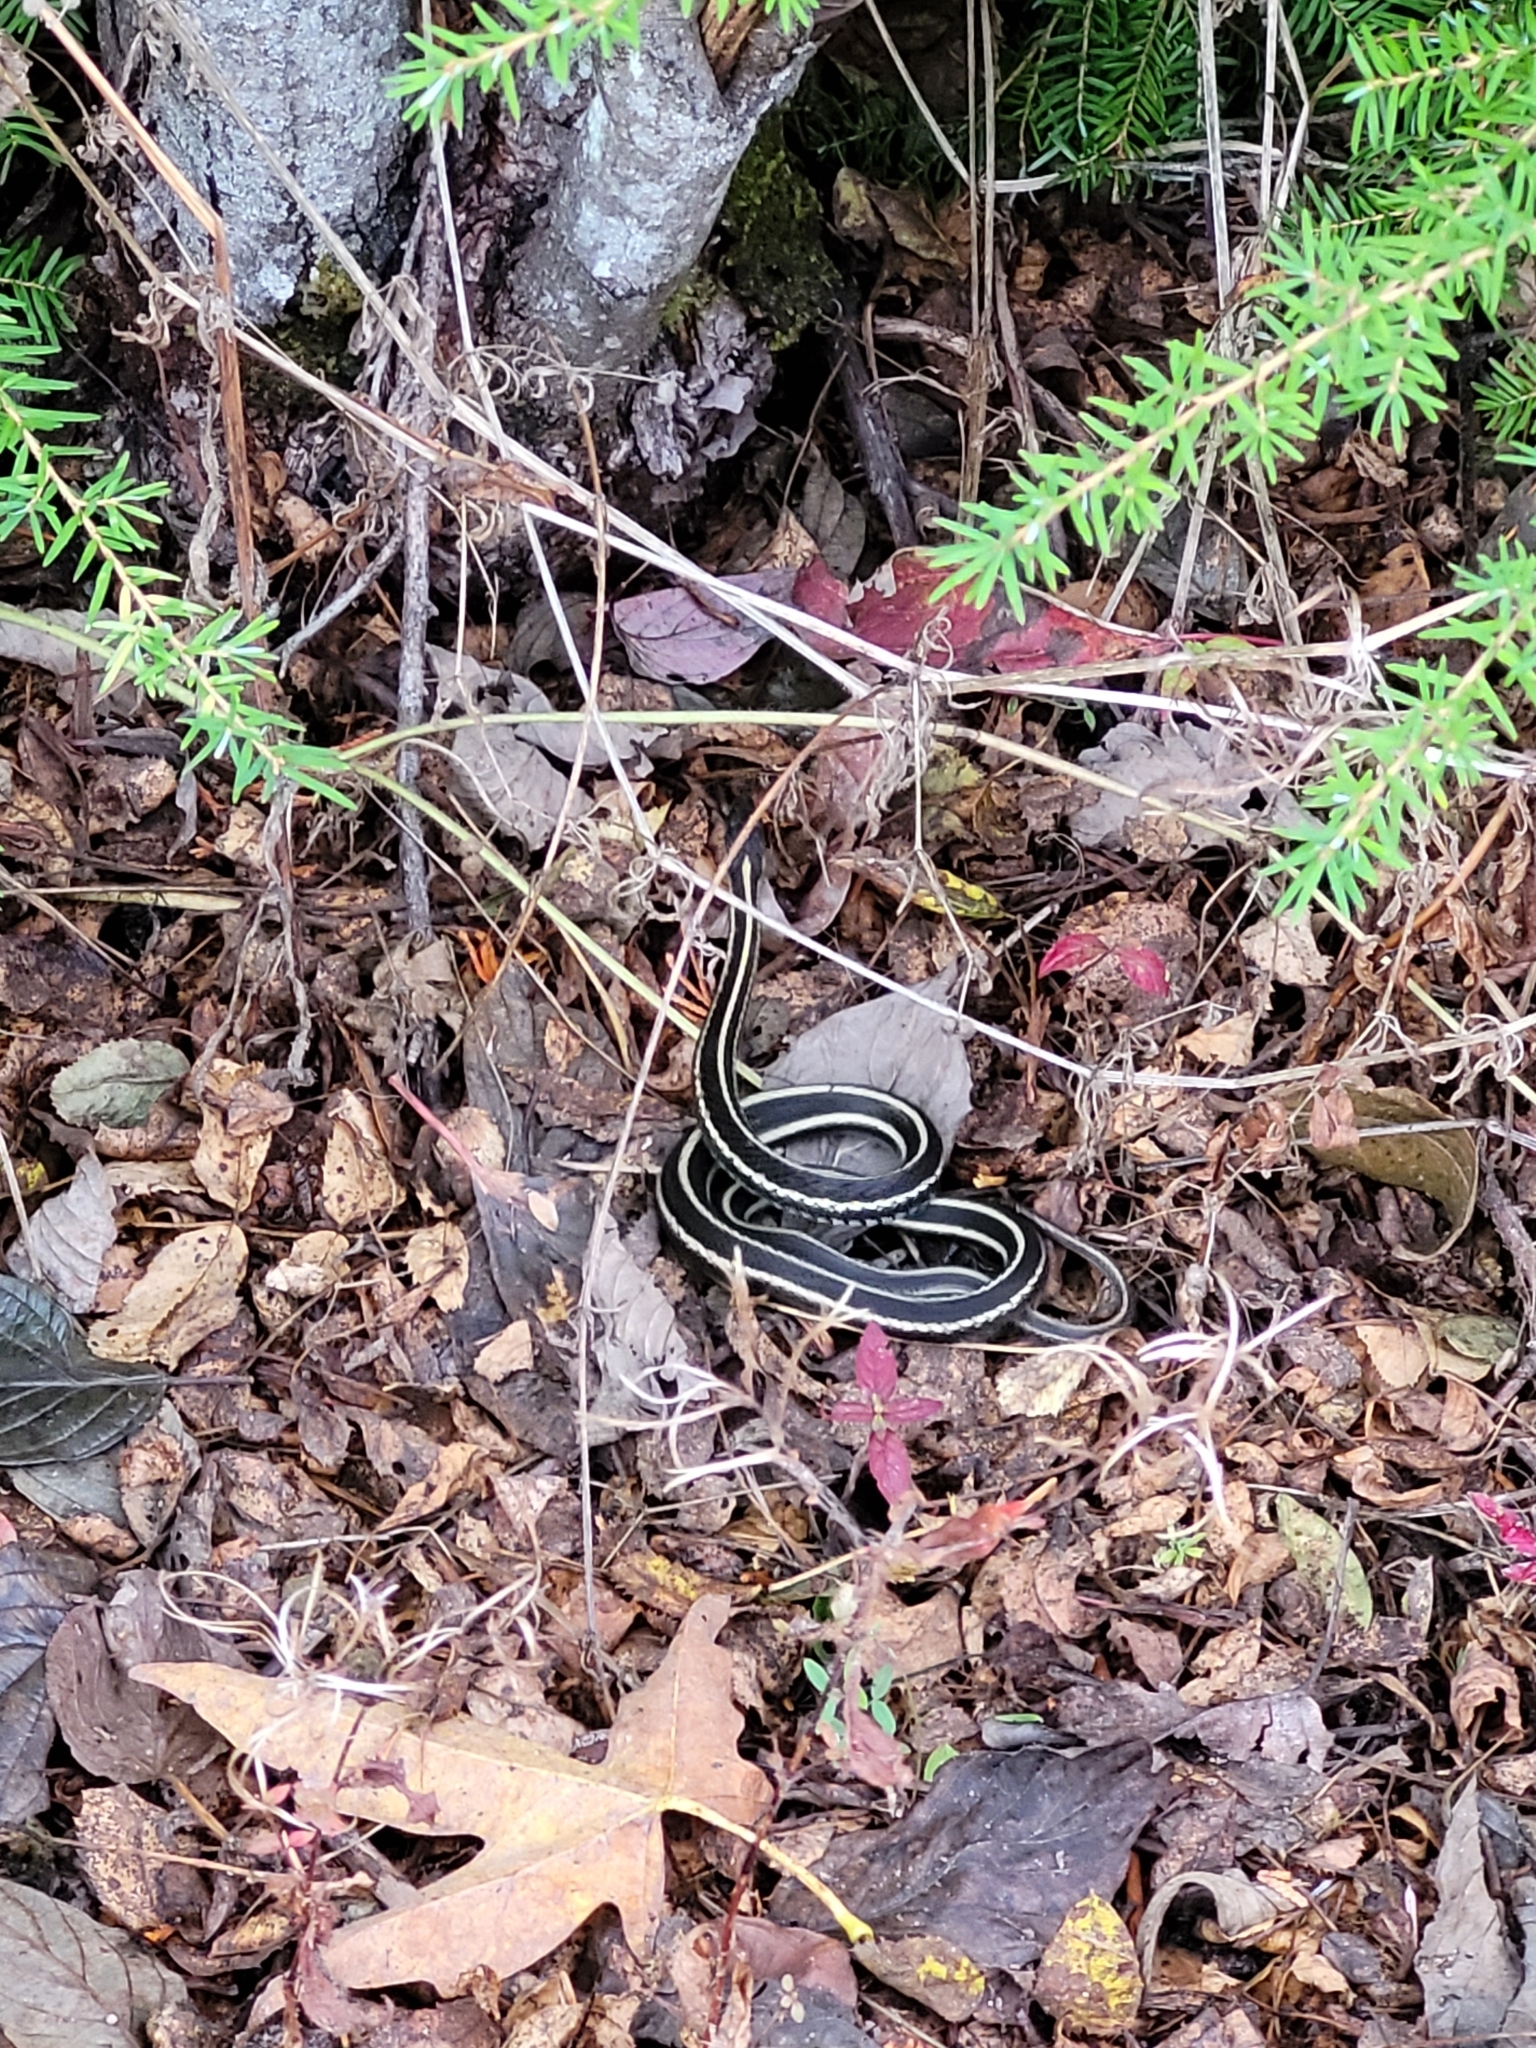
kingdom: Animalia
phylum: Chordata
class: Squamata
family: Colubridae
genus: Thamnophis
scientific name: Thamnophis sirtalis
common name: Common garter snake
